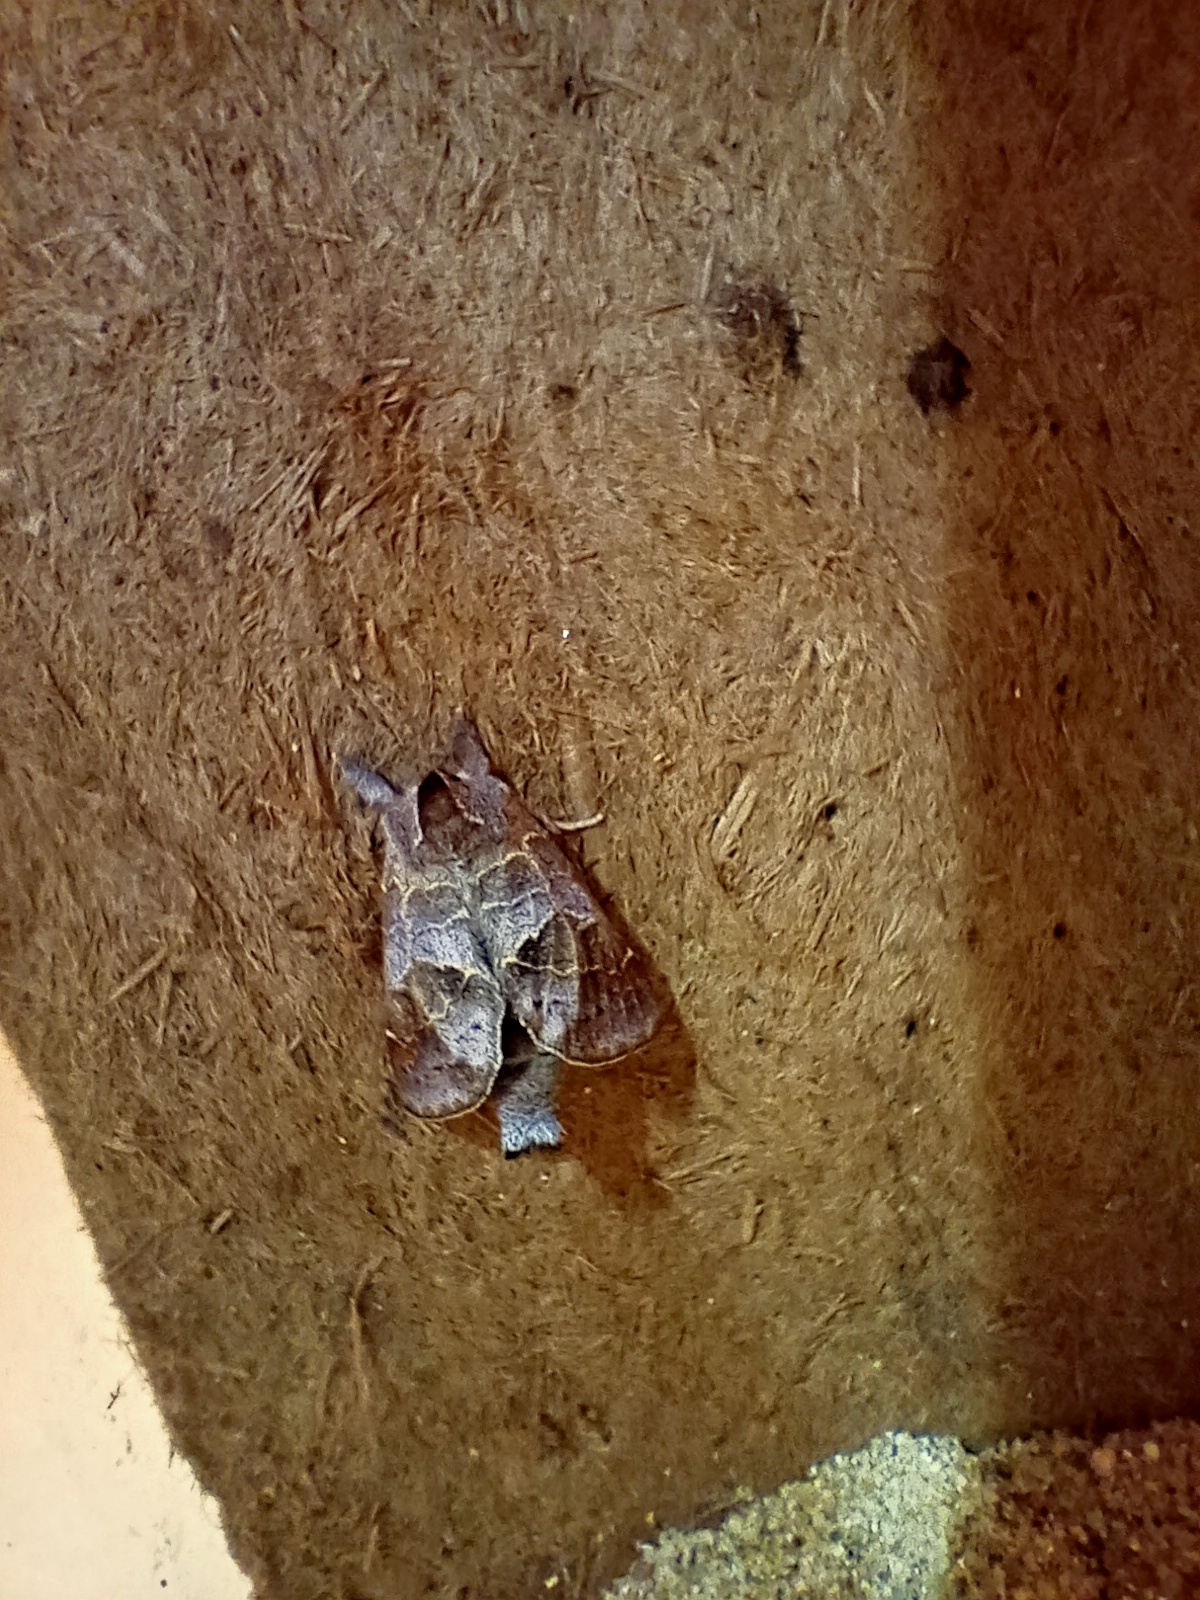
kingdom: Animalia
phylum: Arthropoda
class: Insecta
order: Lepidoptera
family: Notodontidae
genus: Clostera
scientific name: Clostera pigra
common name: Small chocolate-tip
